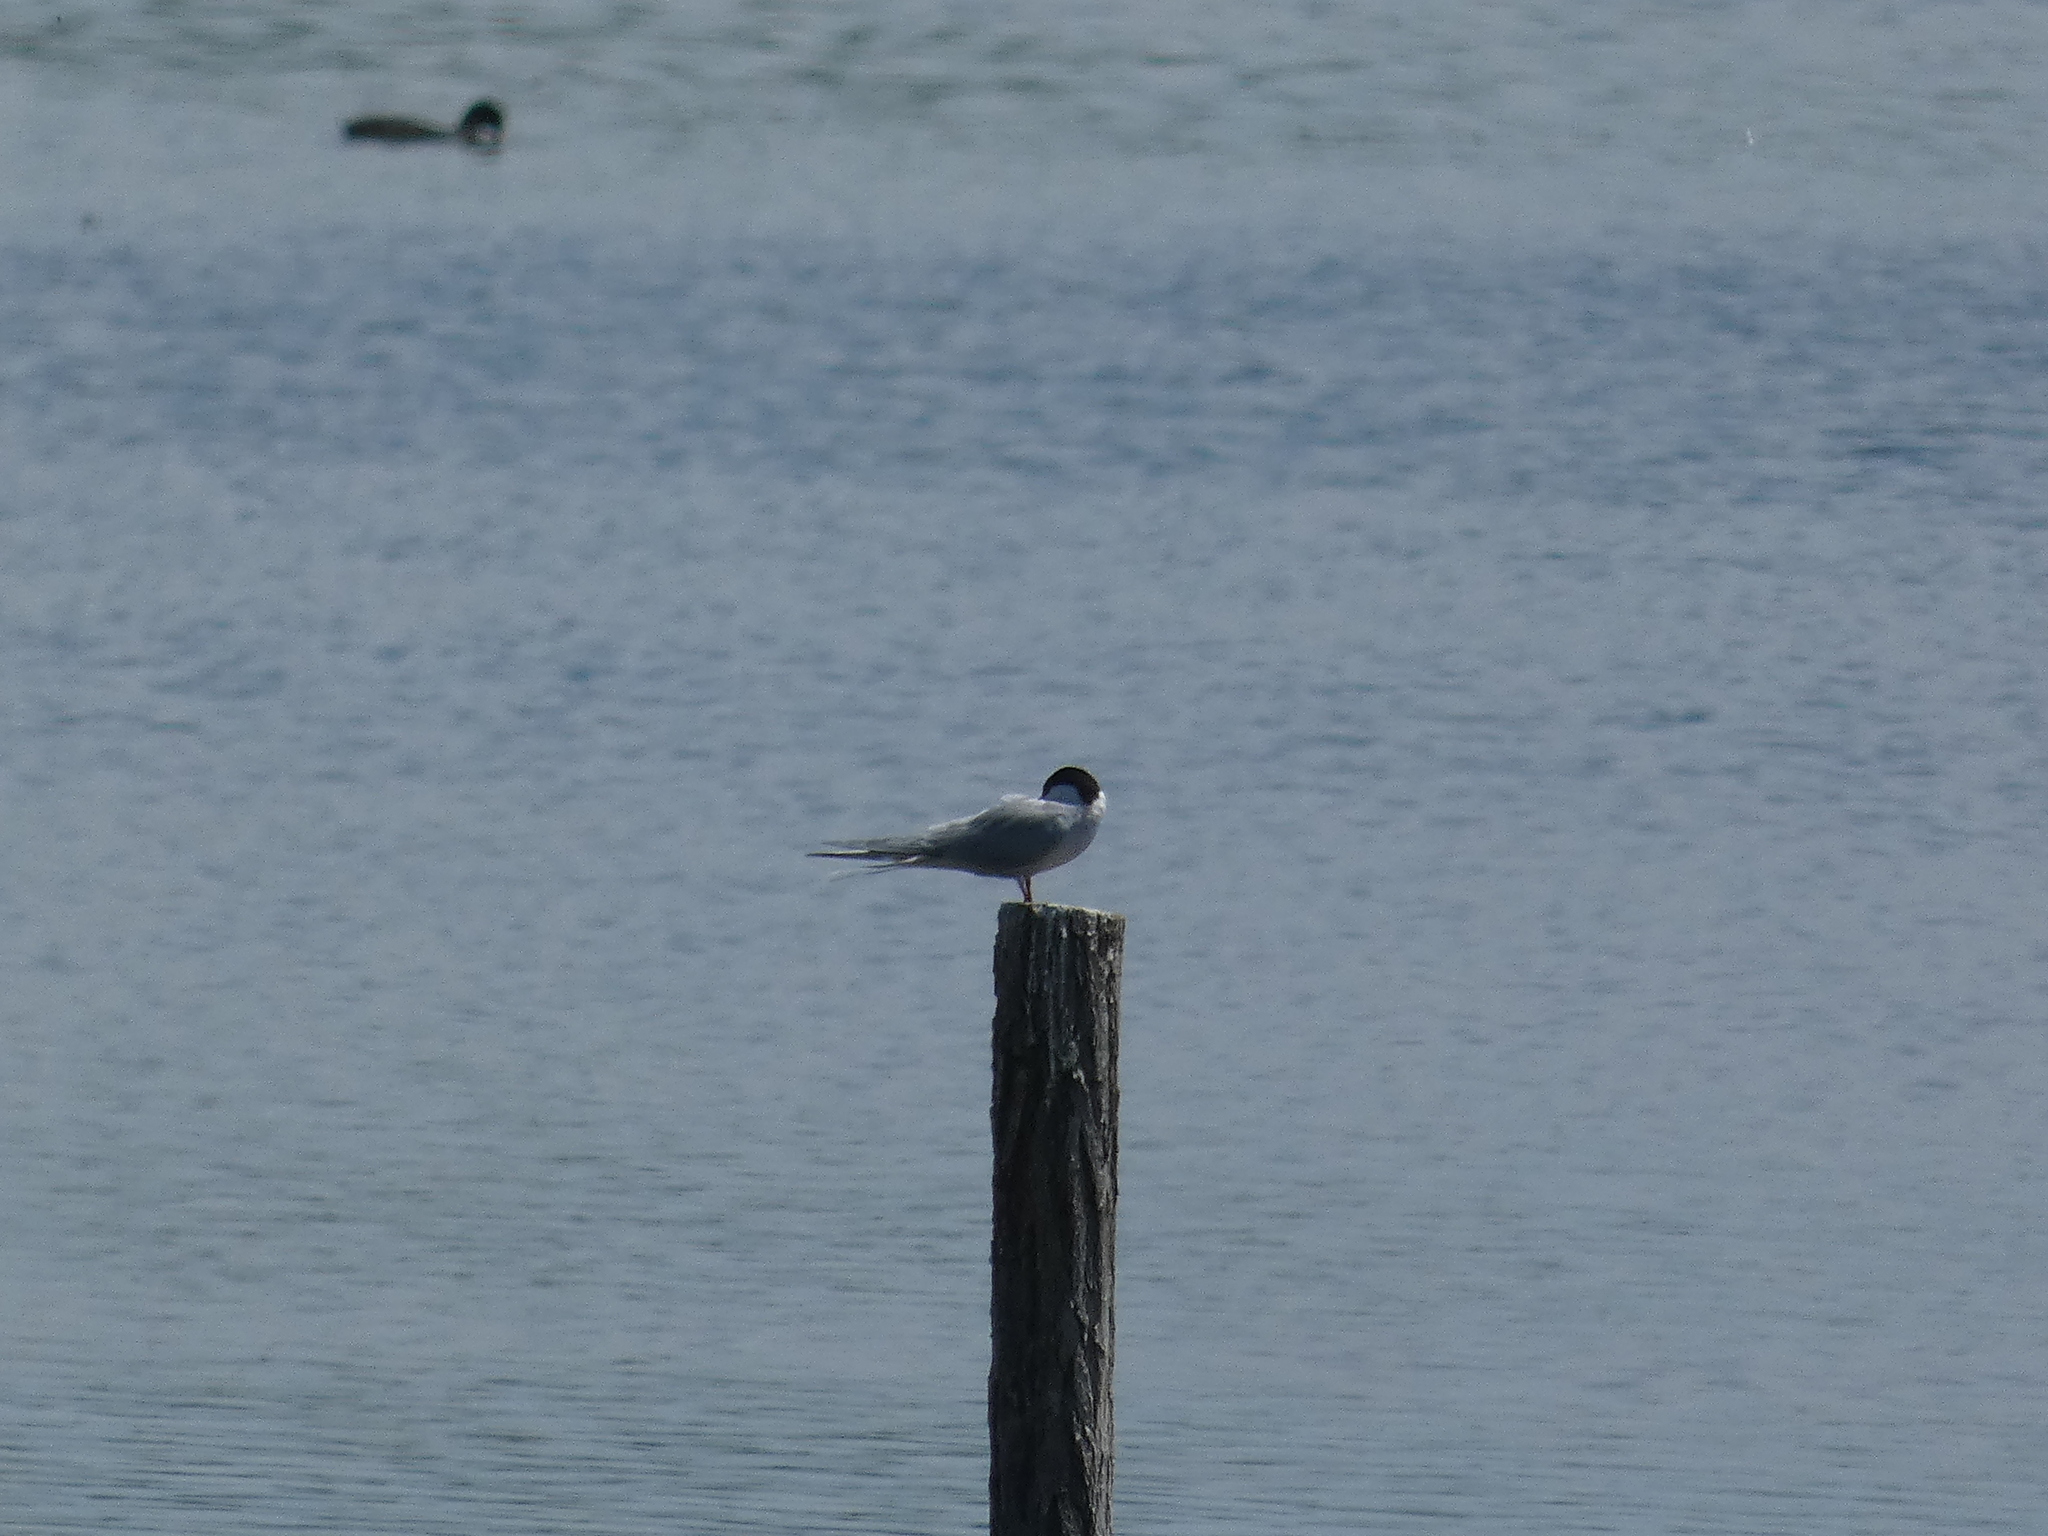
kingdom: Animalia
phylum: Chordata
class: Aves
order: Charadriiformes
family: Laridae
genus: Sterna
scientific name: Sterna hirundo
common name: Common tern
